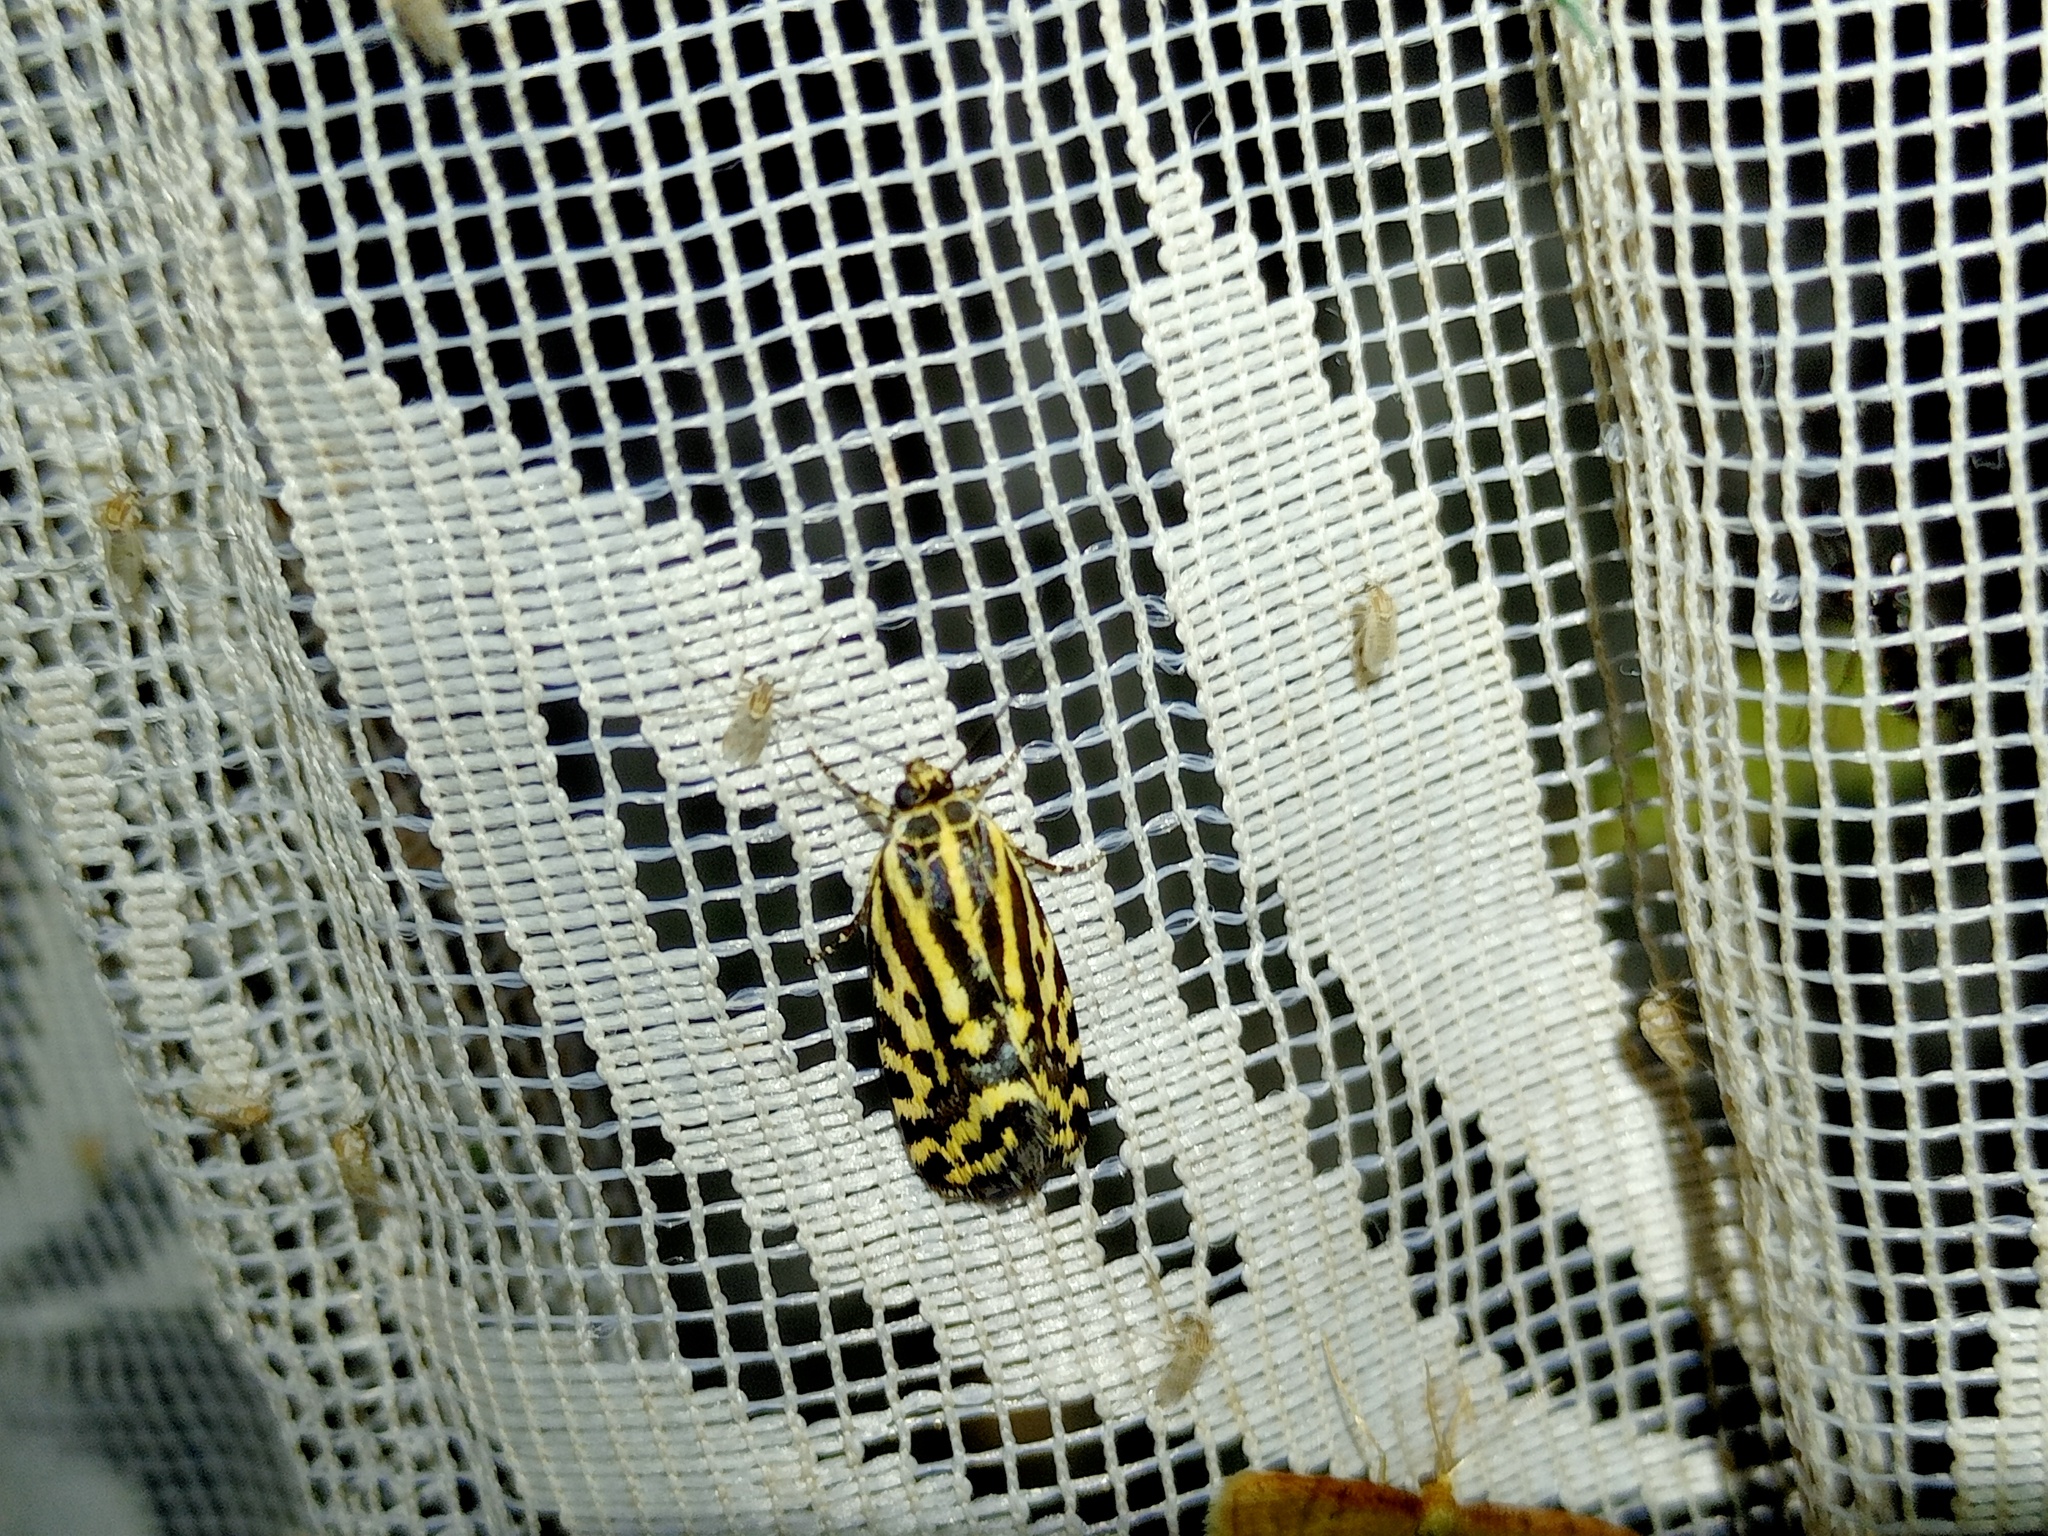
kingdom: Animalia
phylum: Arthropoda
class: Insecta
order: Lepidoptera
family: Noctuidae
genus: Acontia
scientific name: Acontia trabealis
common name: Spotted sulphur
